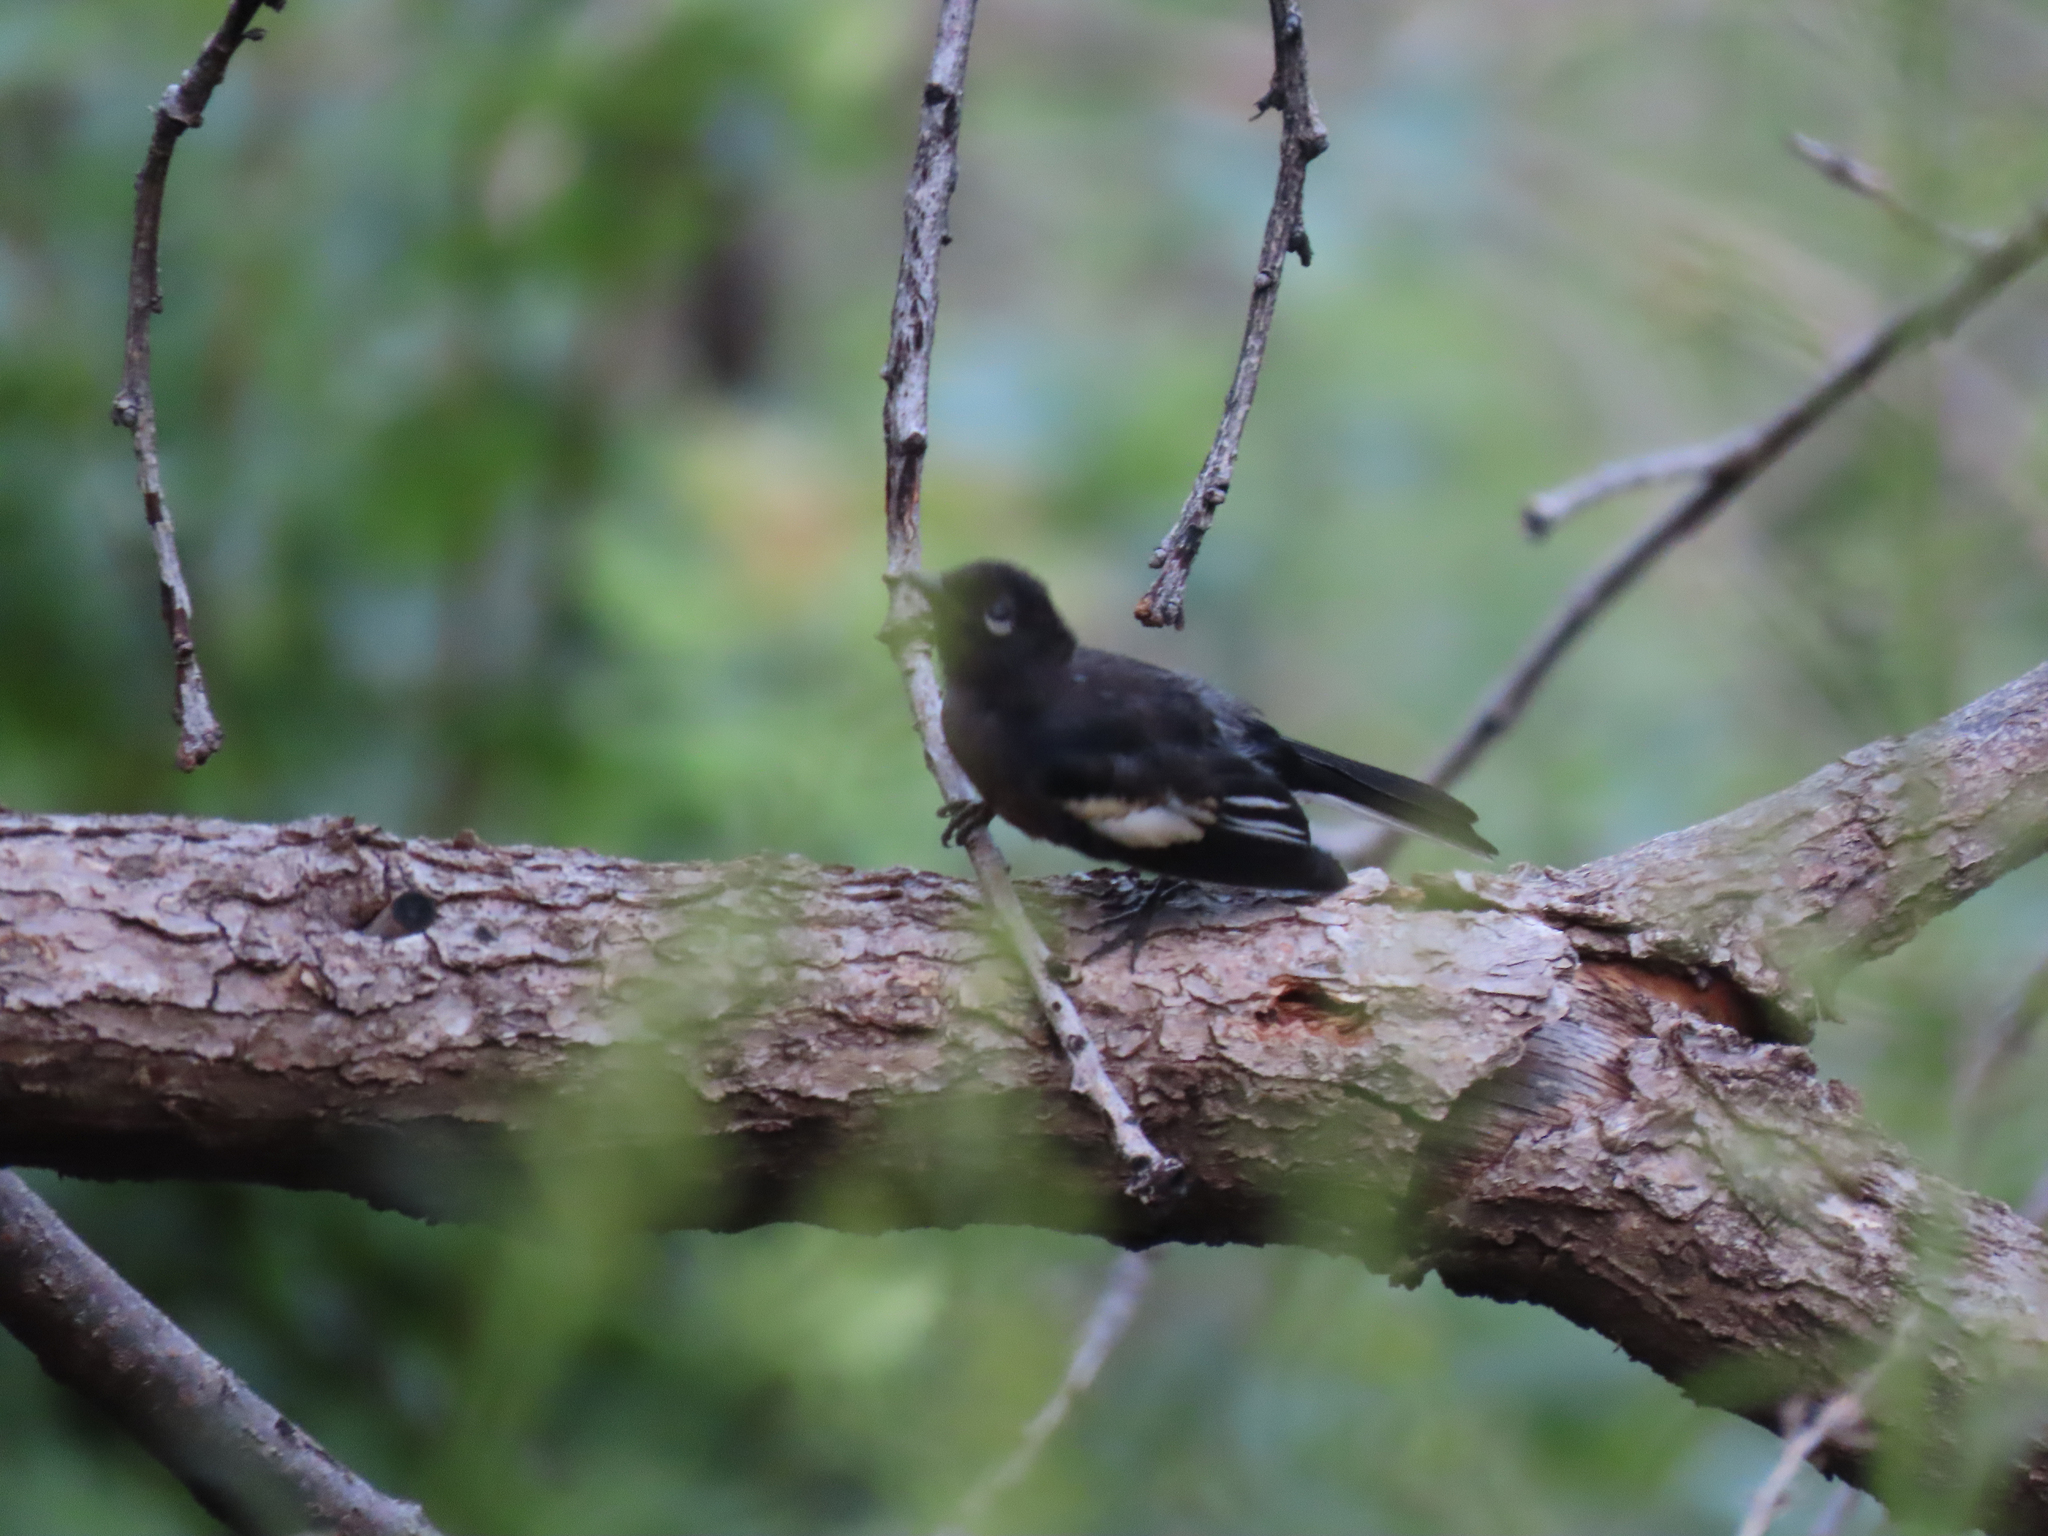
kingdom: Animalia
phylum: Chordata
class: Aves
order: Passeriformes
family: Parulidae
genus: Myioborus
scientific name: Myioborus pictus
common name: Painted whitestart
